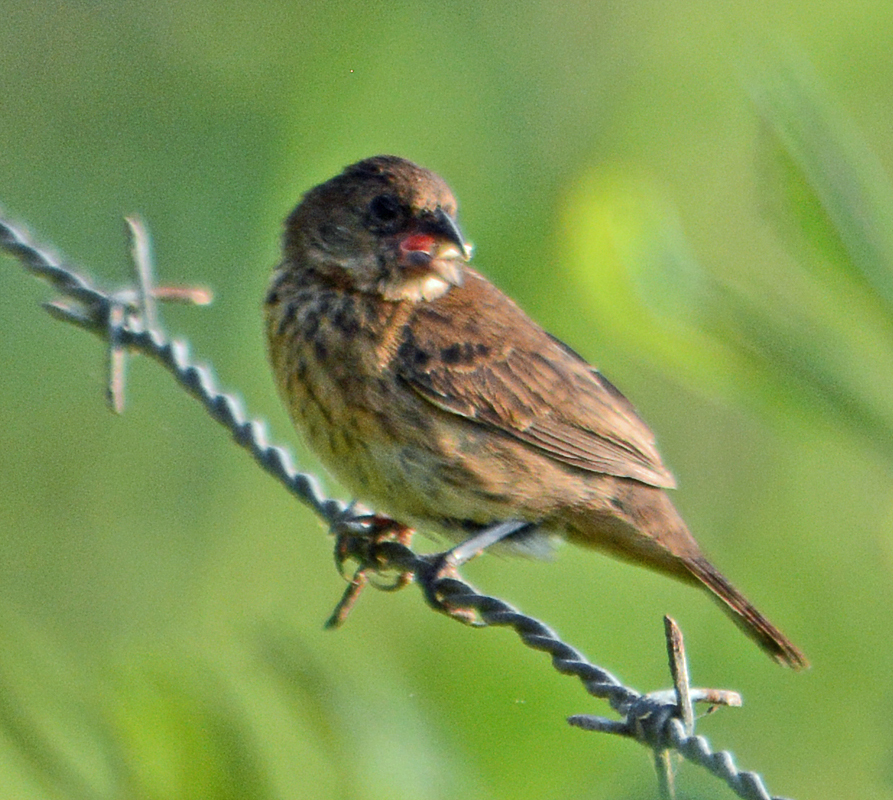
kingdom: Animalia
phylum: Chordata
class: Aves
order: Passeriformes
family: Thraupidae
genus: Volatinia
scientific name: Volatinia jacarina
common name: Blue-black grassquit
